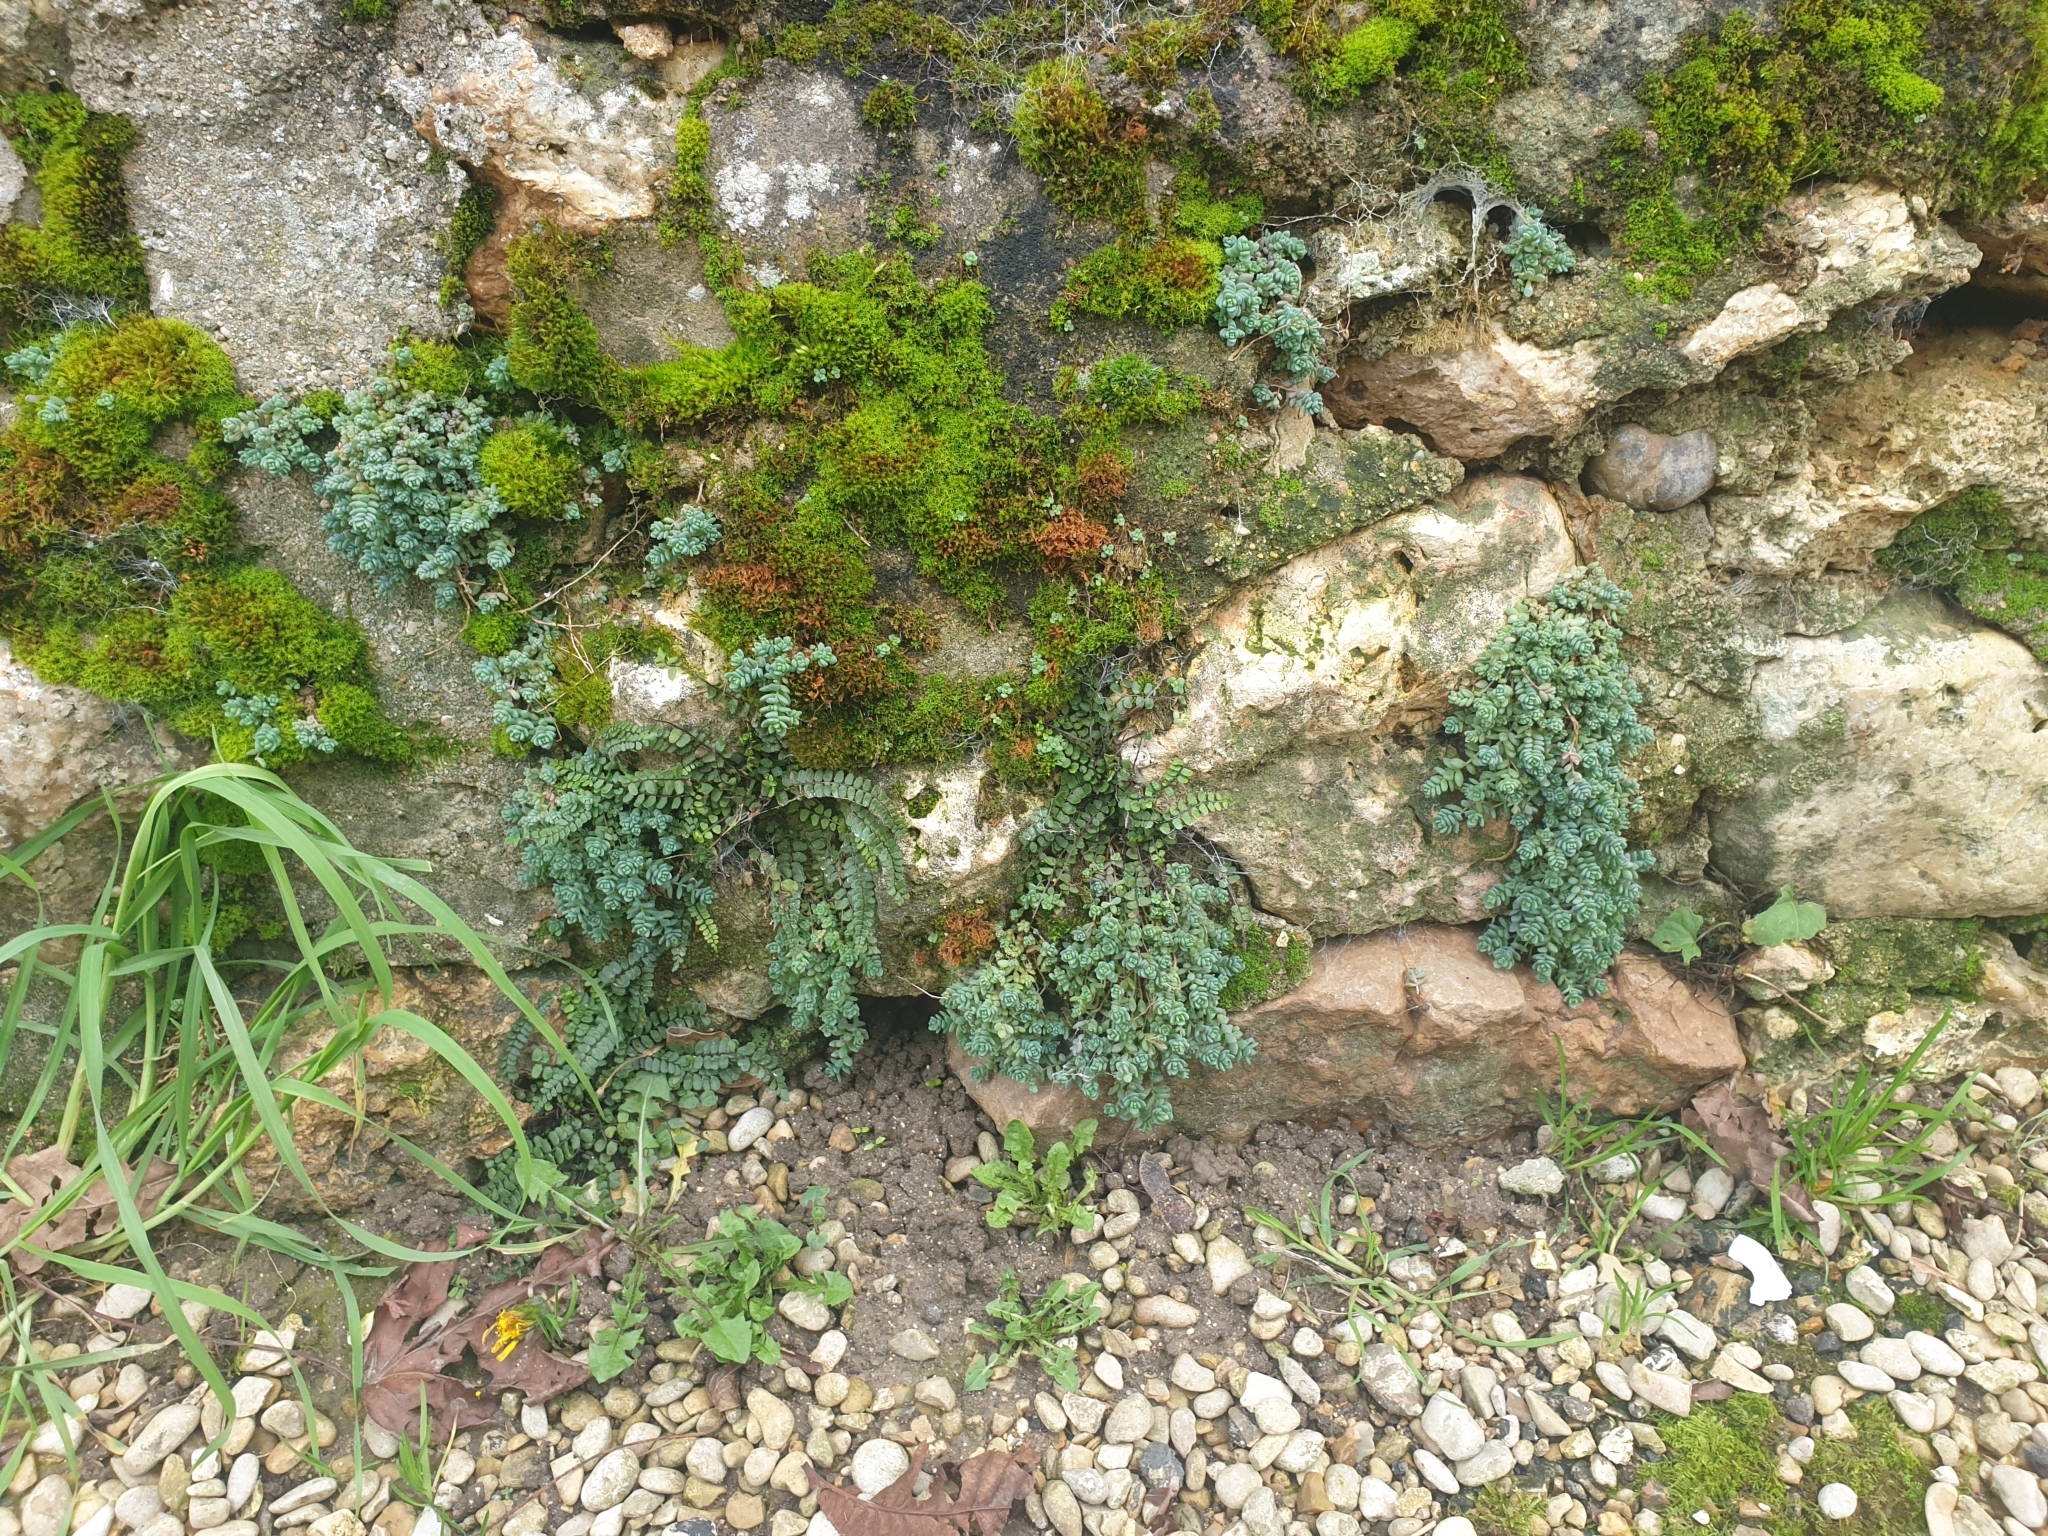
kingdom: Plantae
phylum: Tracheophyta
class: Magnoliopsida
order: Saxifragales
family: Crassulaceae
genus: Sedum
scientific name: Sedum dasyphyllum
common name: Thick-leaf stonecrop
